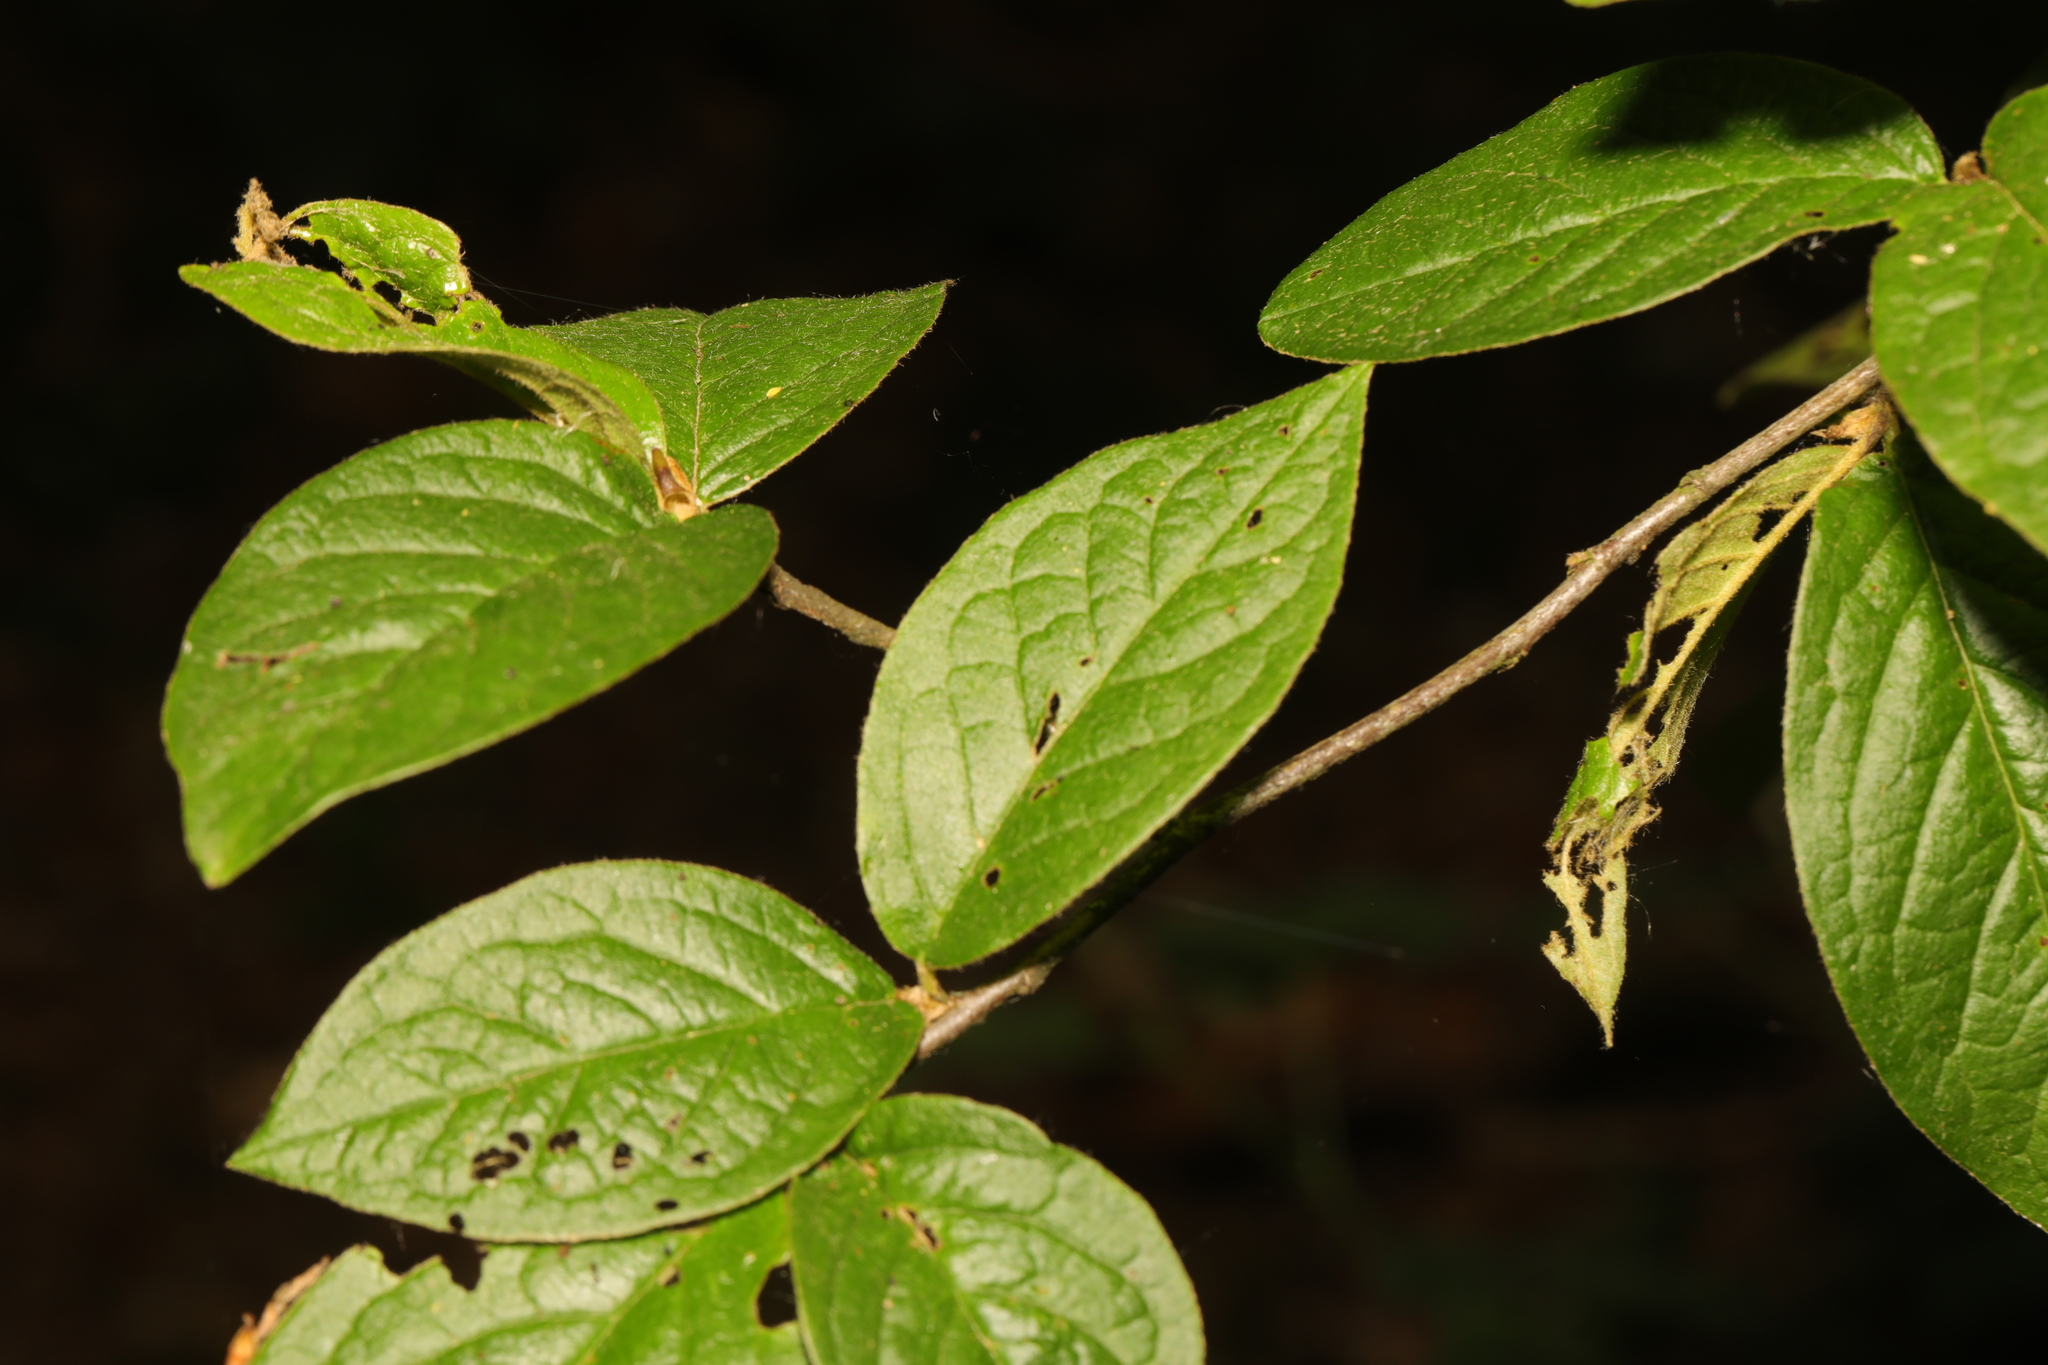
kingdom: Plantae
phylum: Tracheophyta
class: Magnoliopsida
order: Rosales
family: Rosaceae
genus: Cotoneaster
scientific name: Cotoneaster bullatus
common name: Hollyberry cotoneaster
